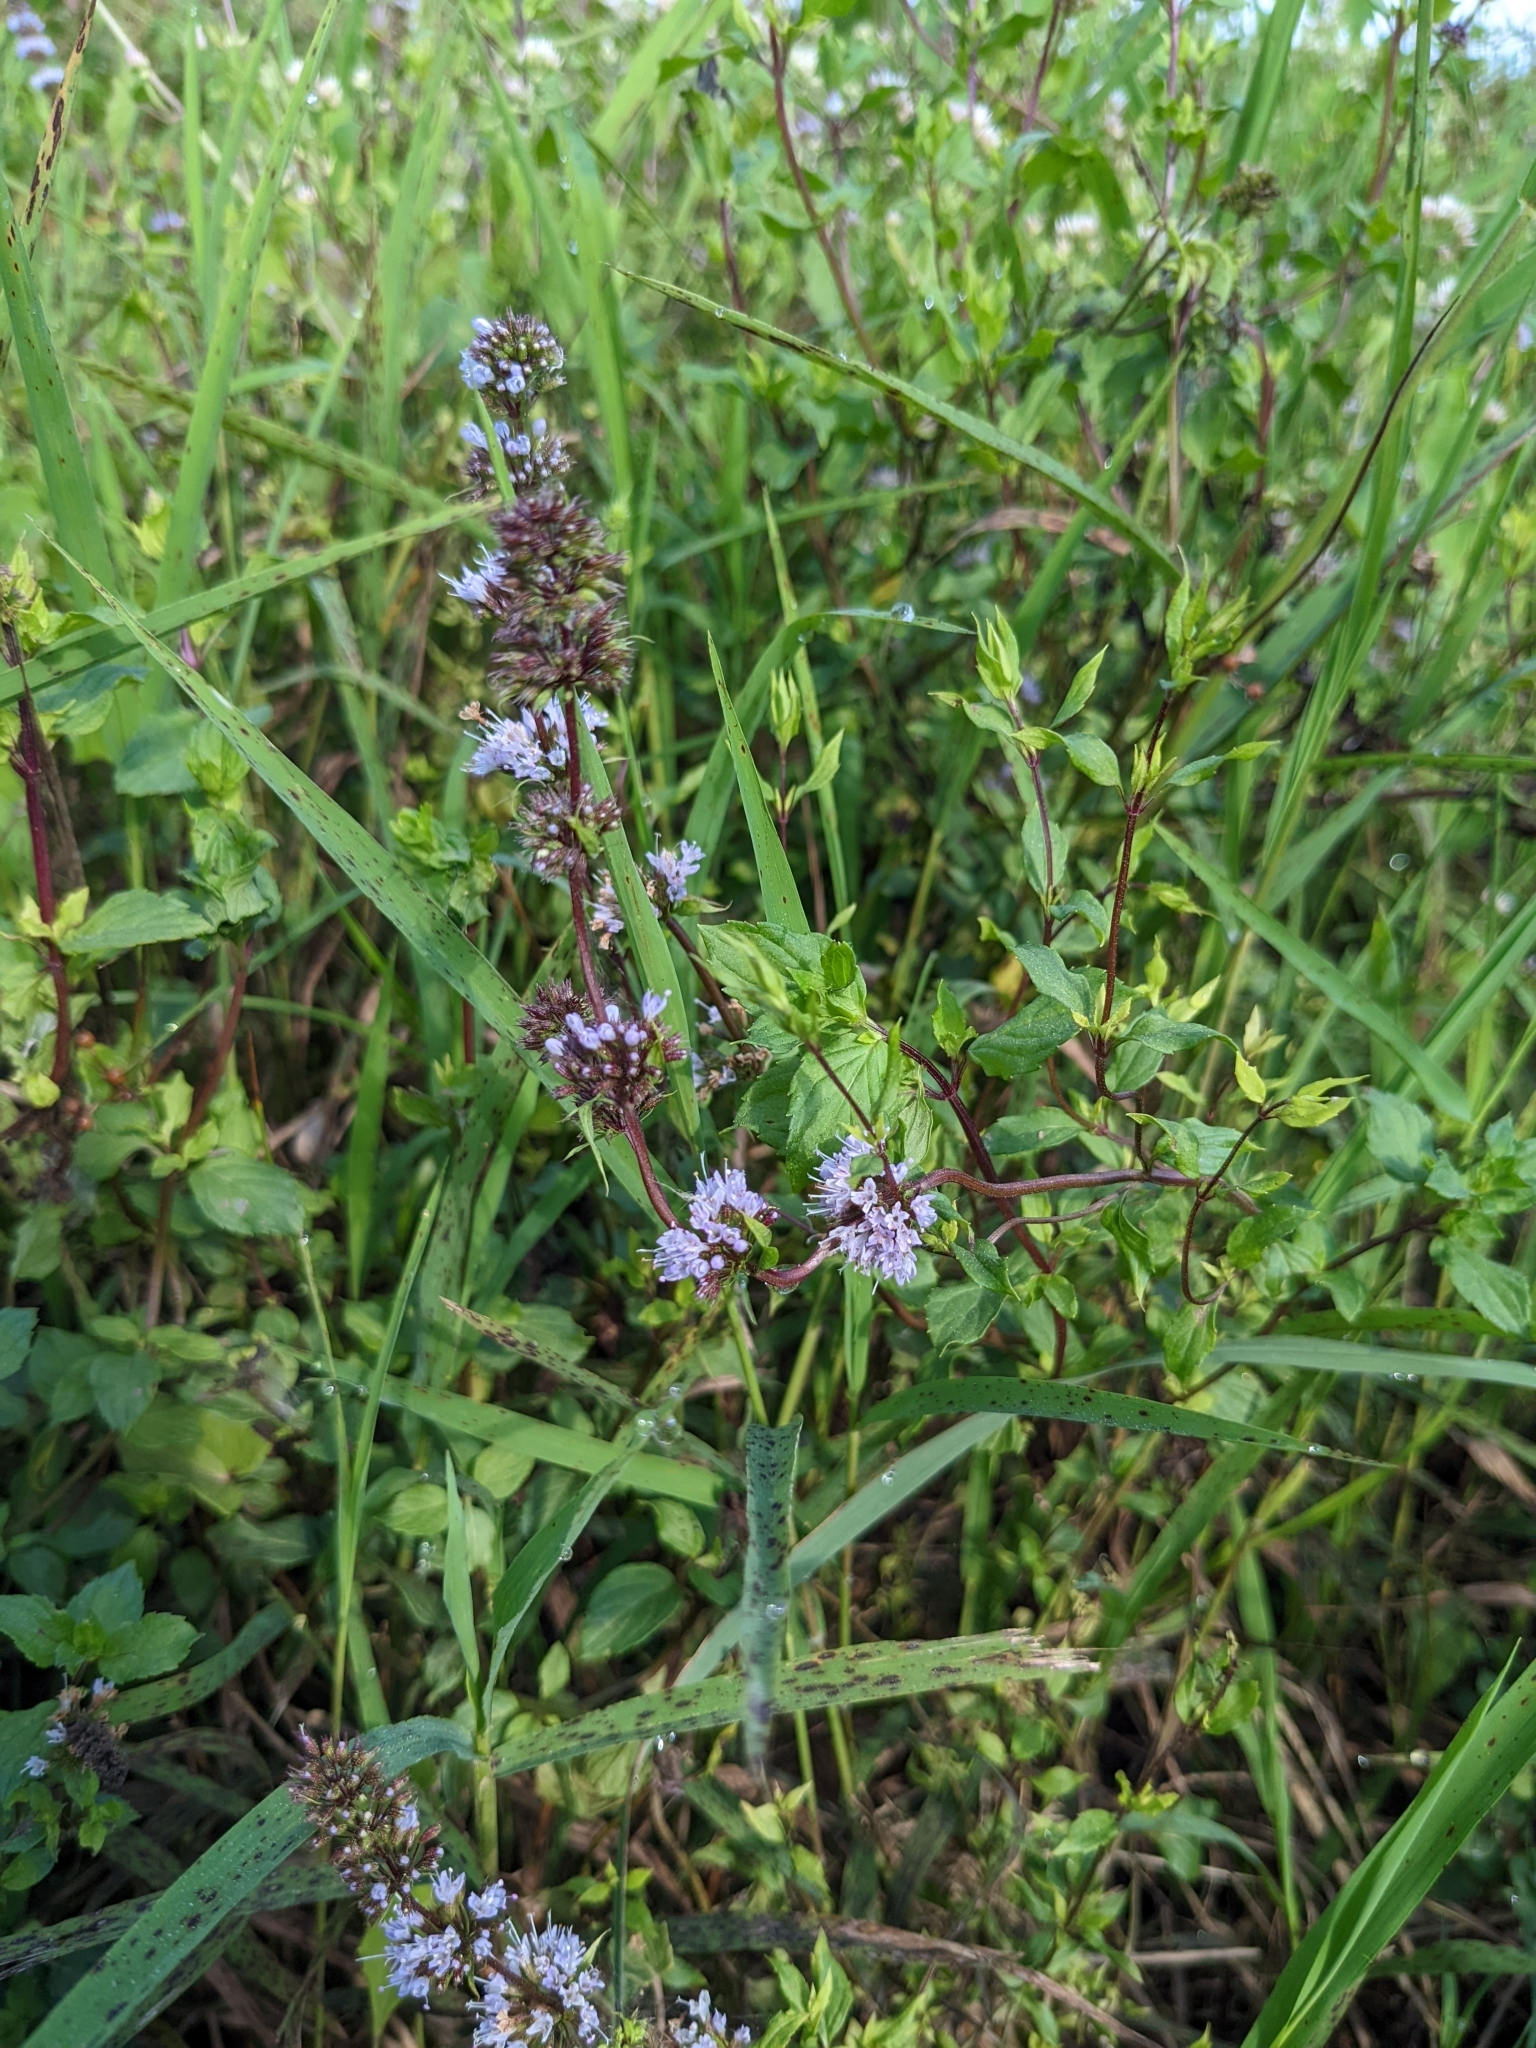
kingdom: Plantae
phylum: Tracheophyta
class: Magnoliopsida
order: Lamiales
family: Lamiaceae
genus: Mentha
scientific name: Mentha piperita
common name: Peppermint
